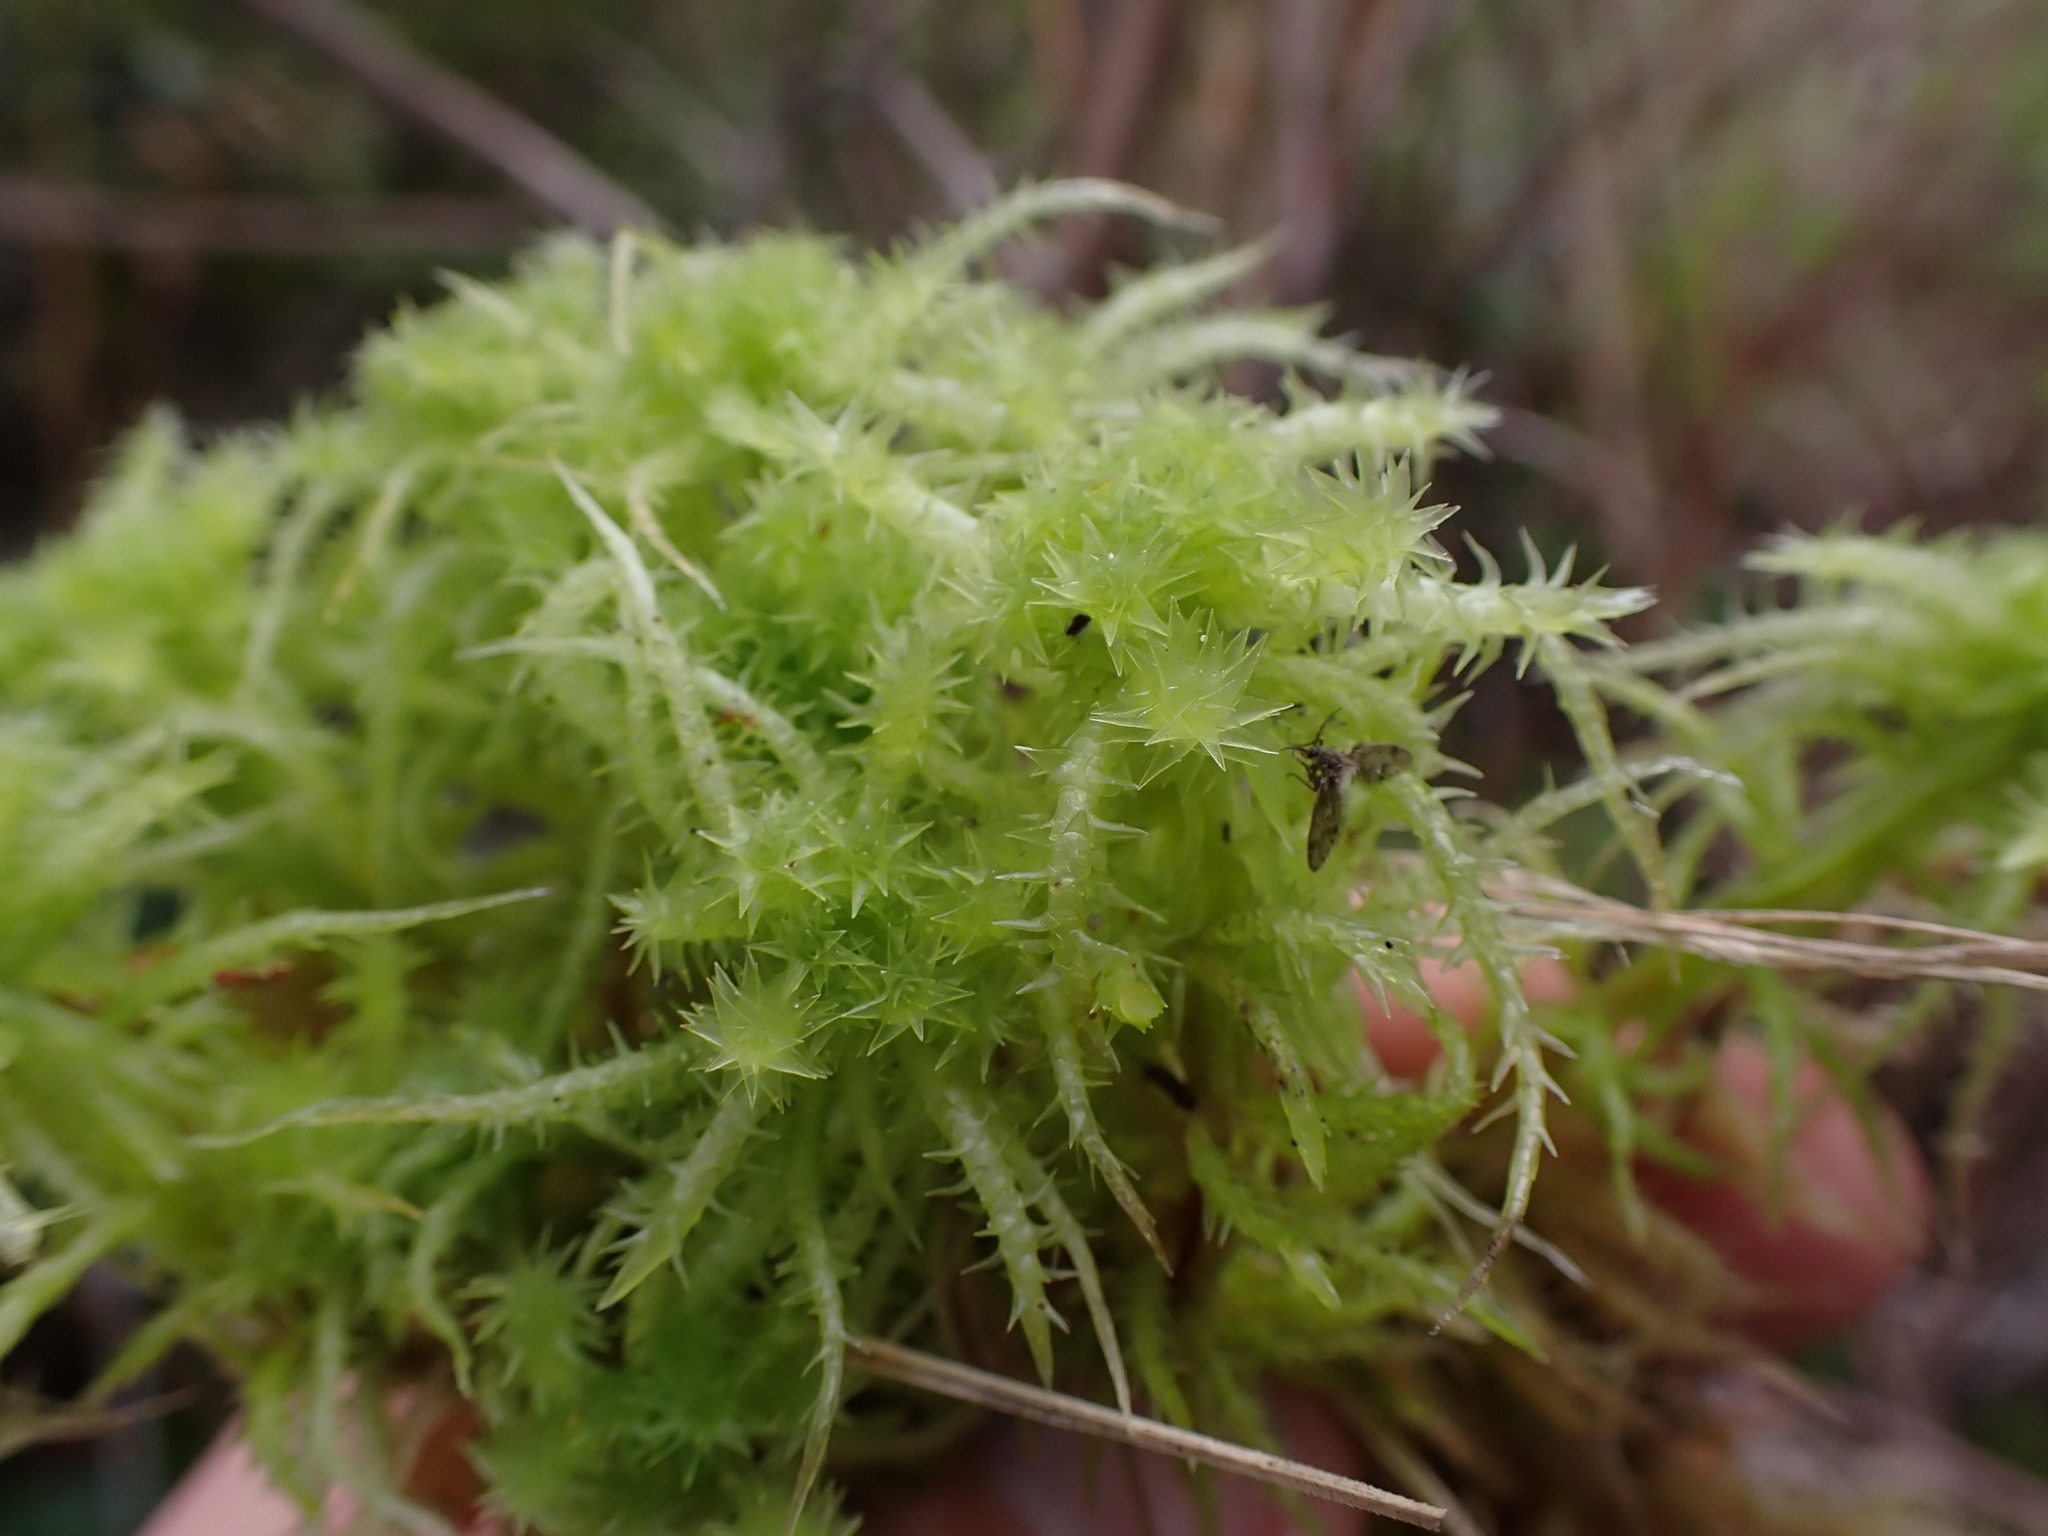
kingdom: Plantae
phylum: Bryophyta
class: Sphagnopsida
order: Sphagnales
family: Sphagnaceae
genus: Sphagnum
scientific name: Sphagnum squarrosum
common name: Shaggy peat moss
